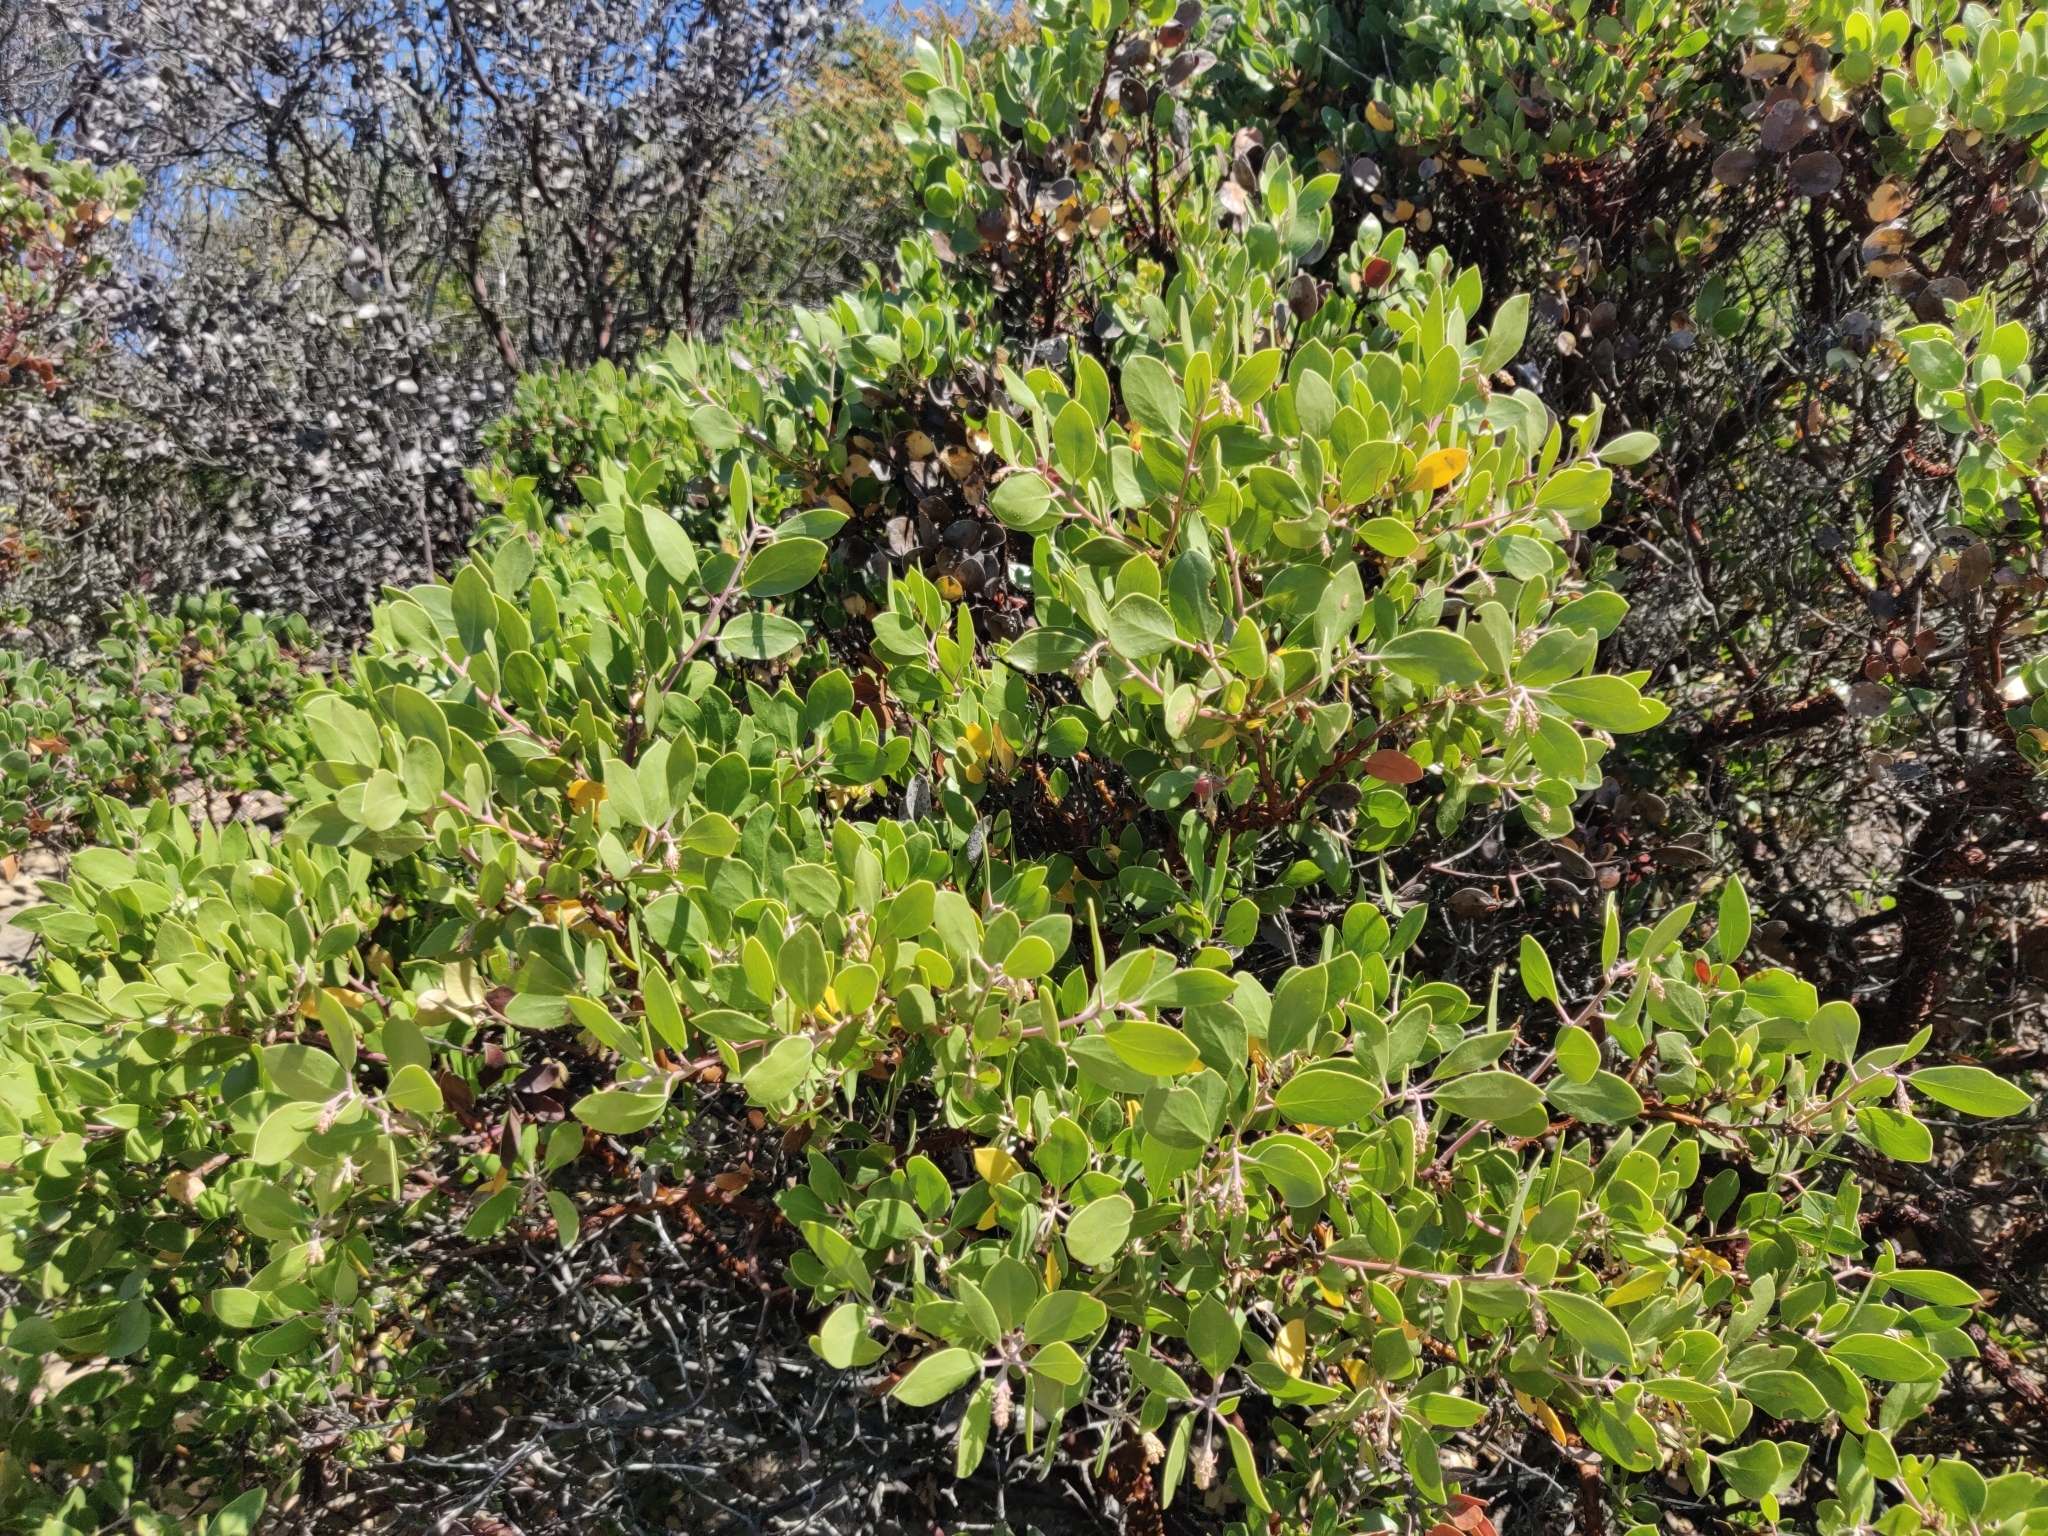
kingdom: Plantae
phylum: Tracheophyta
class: Magnoliopsida
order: Ericales
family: Ericaceae
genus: Arctostaphylos
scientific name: Arctostaphylos manzanita
